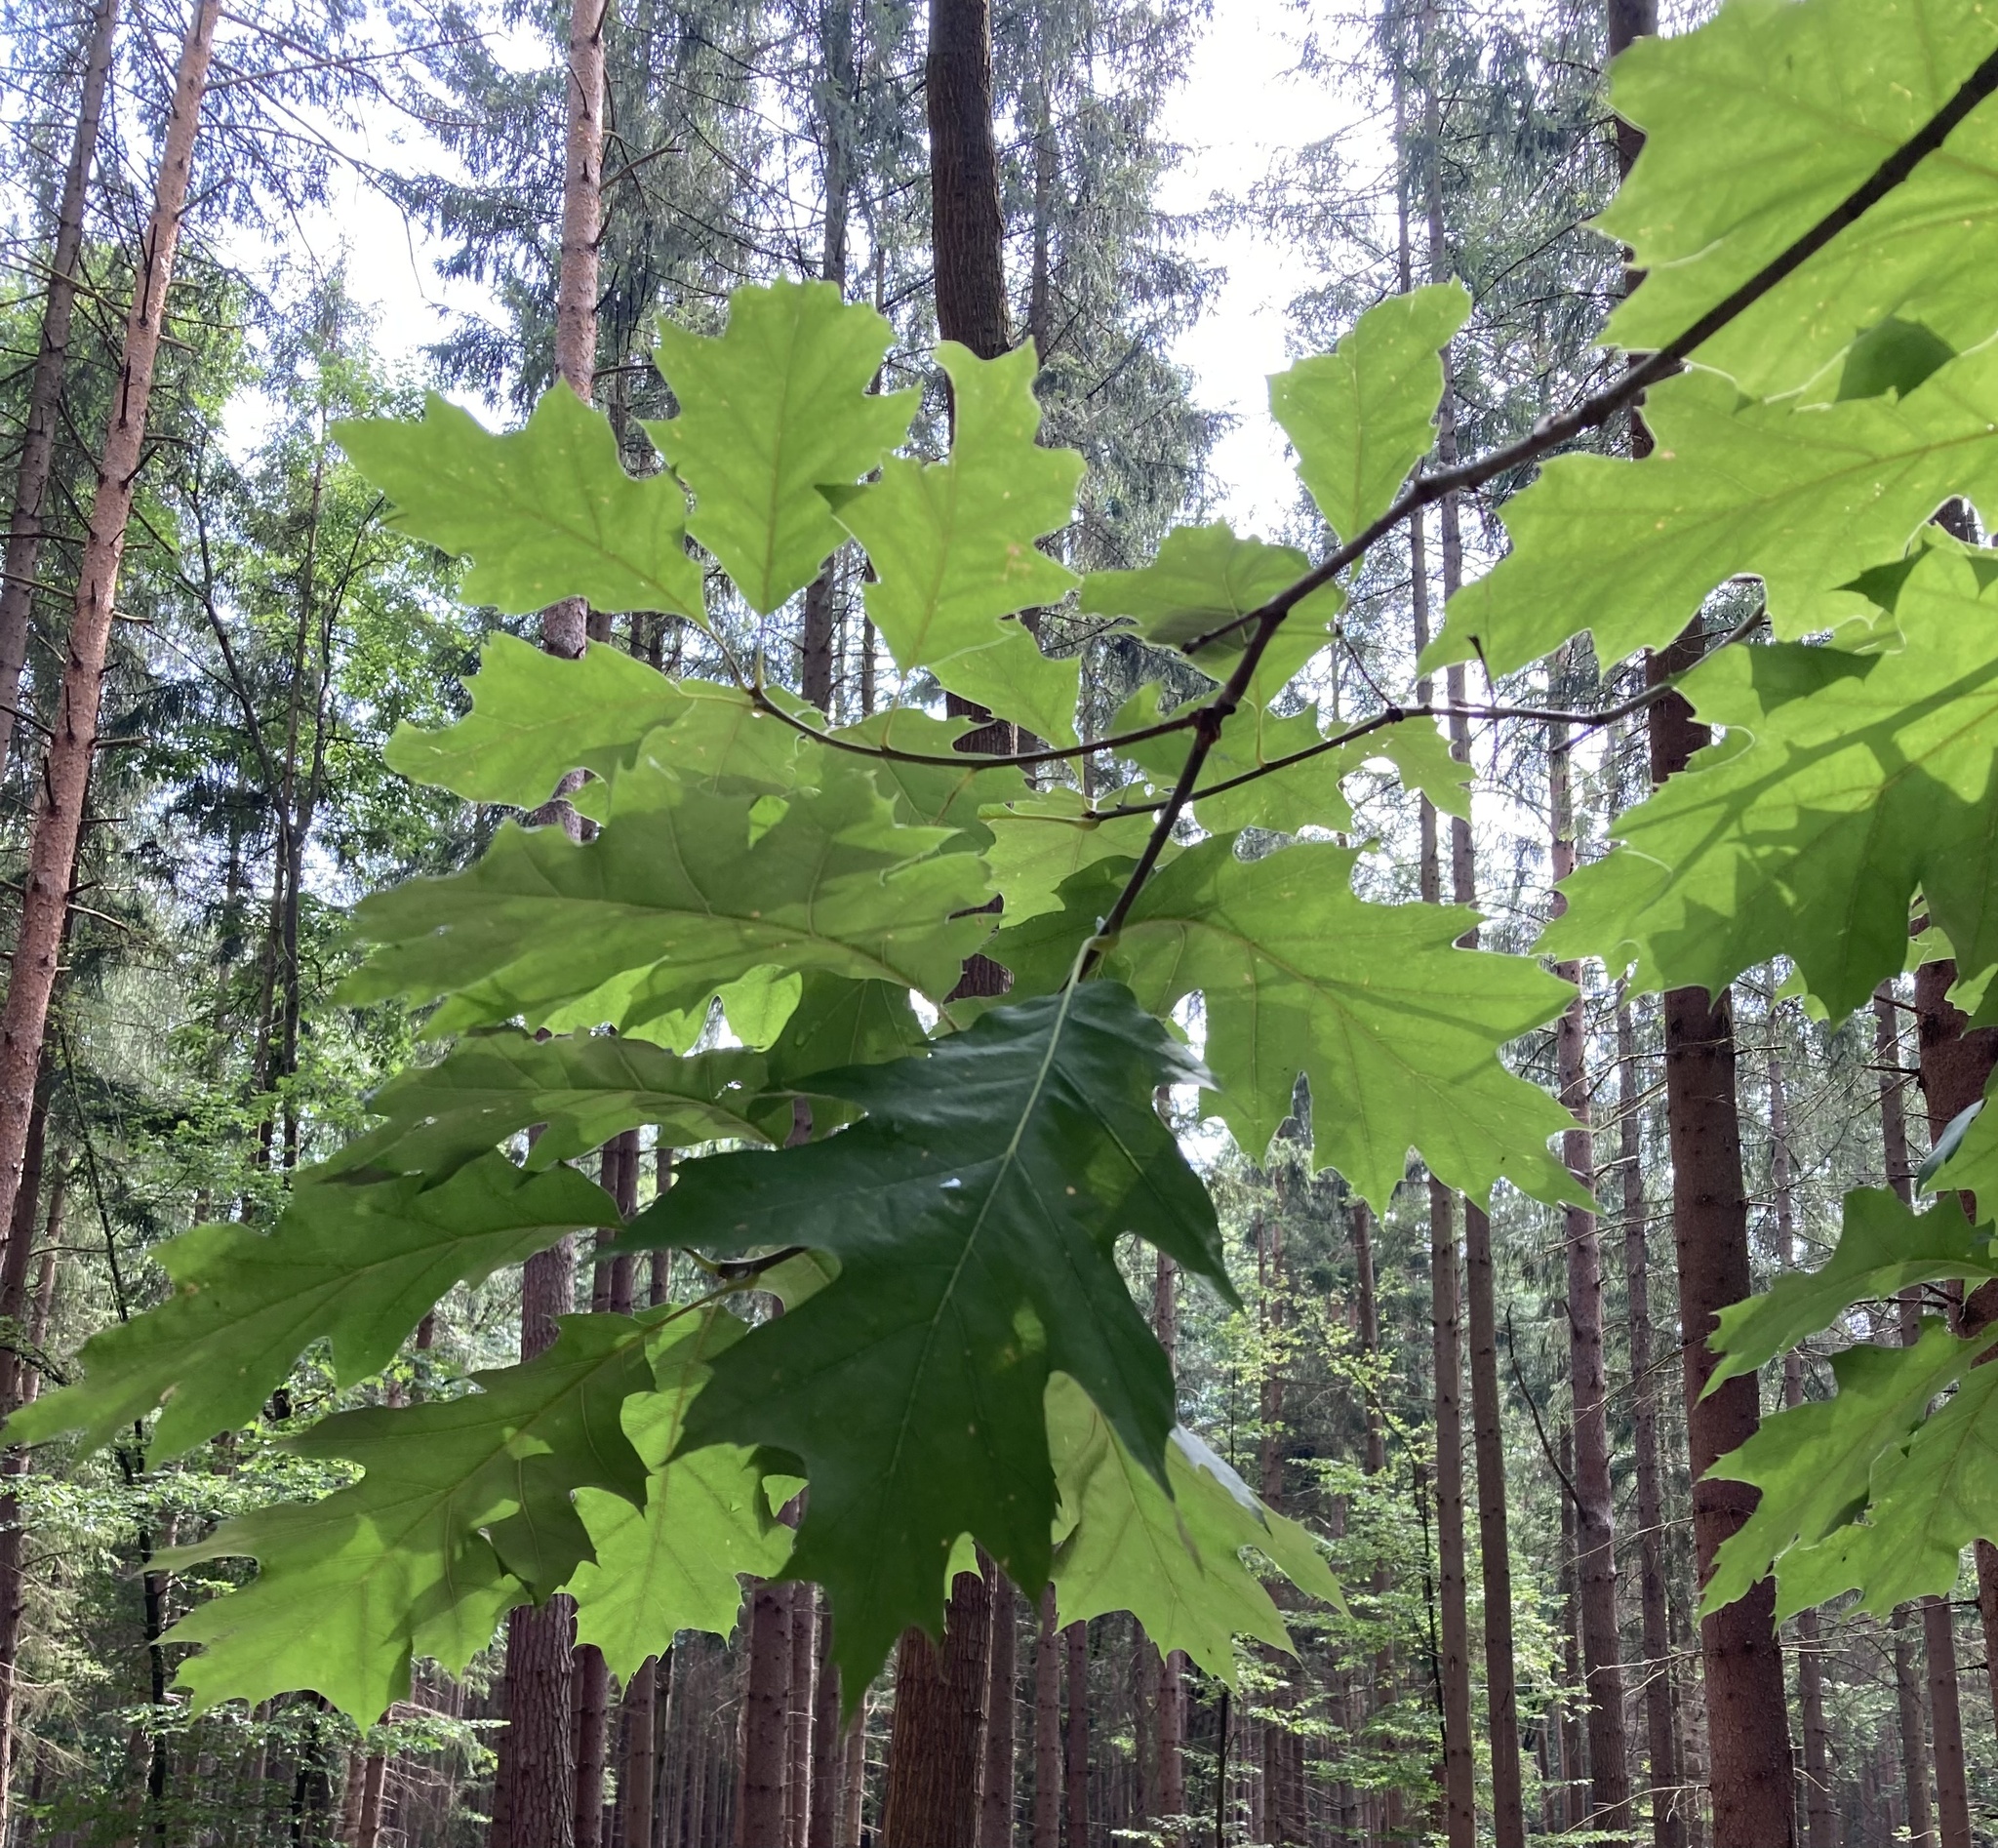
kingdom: Plantae
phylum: Tracheophyta
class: Magnoliopsida
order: Fagales
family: Fagaceae
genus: Quercus
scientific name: Quercus rubra
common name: Red oak
